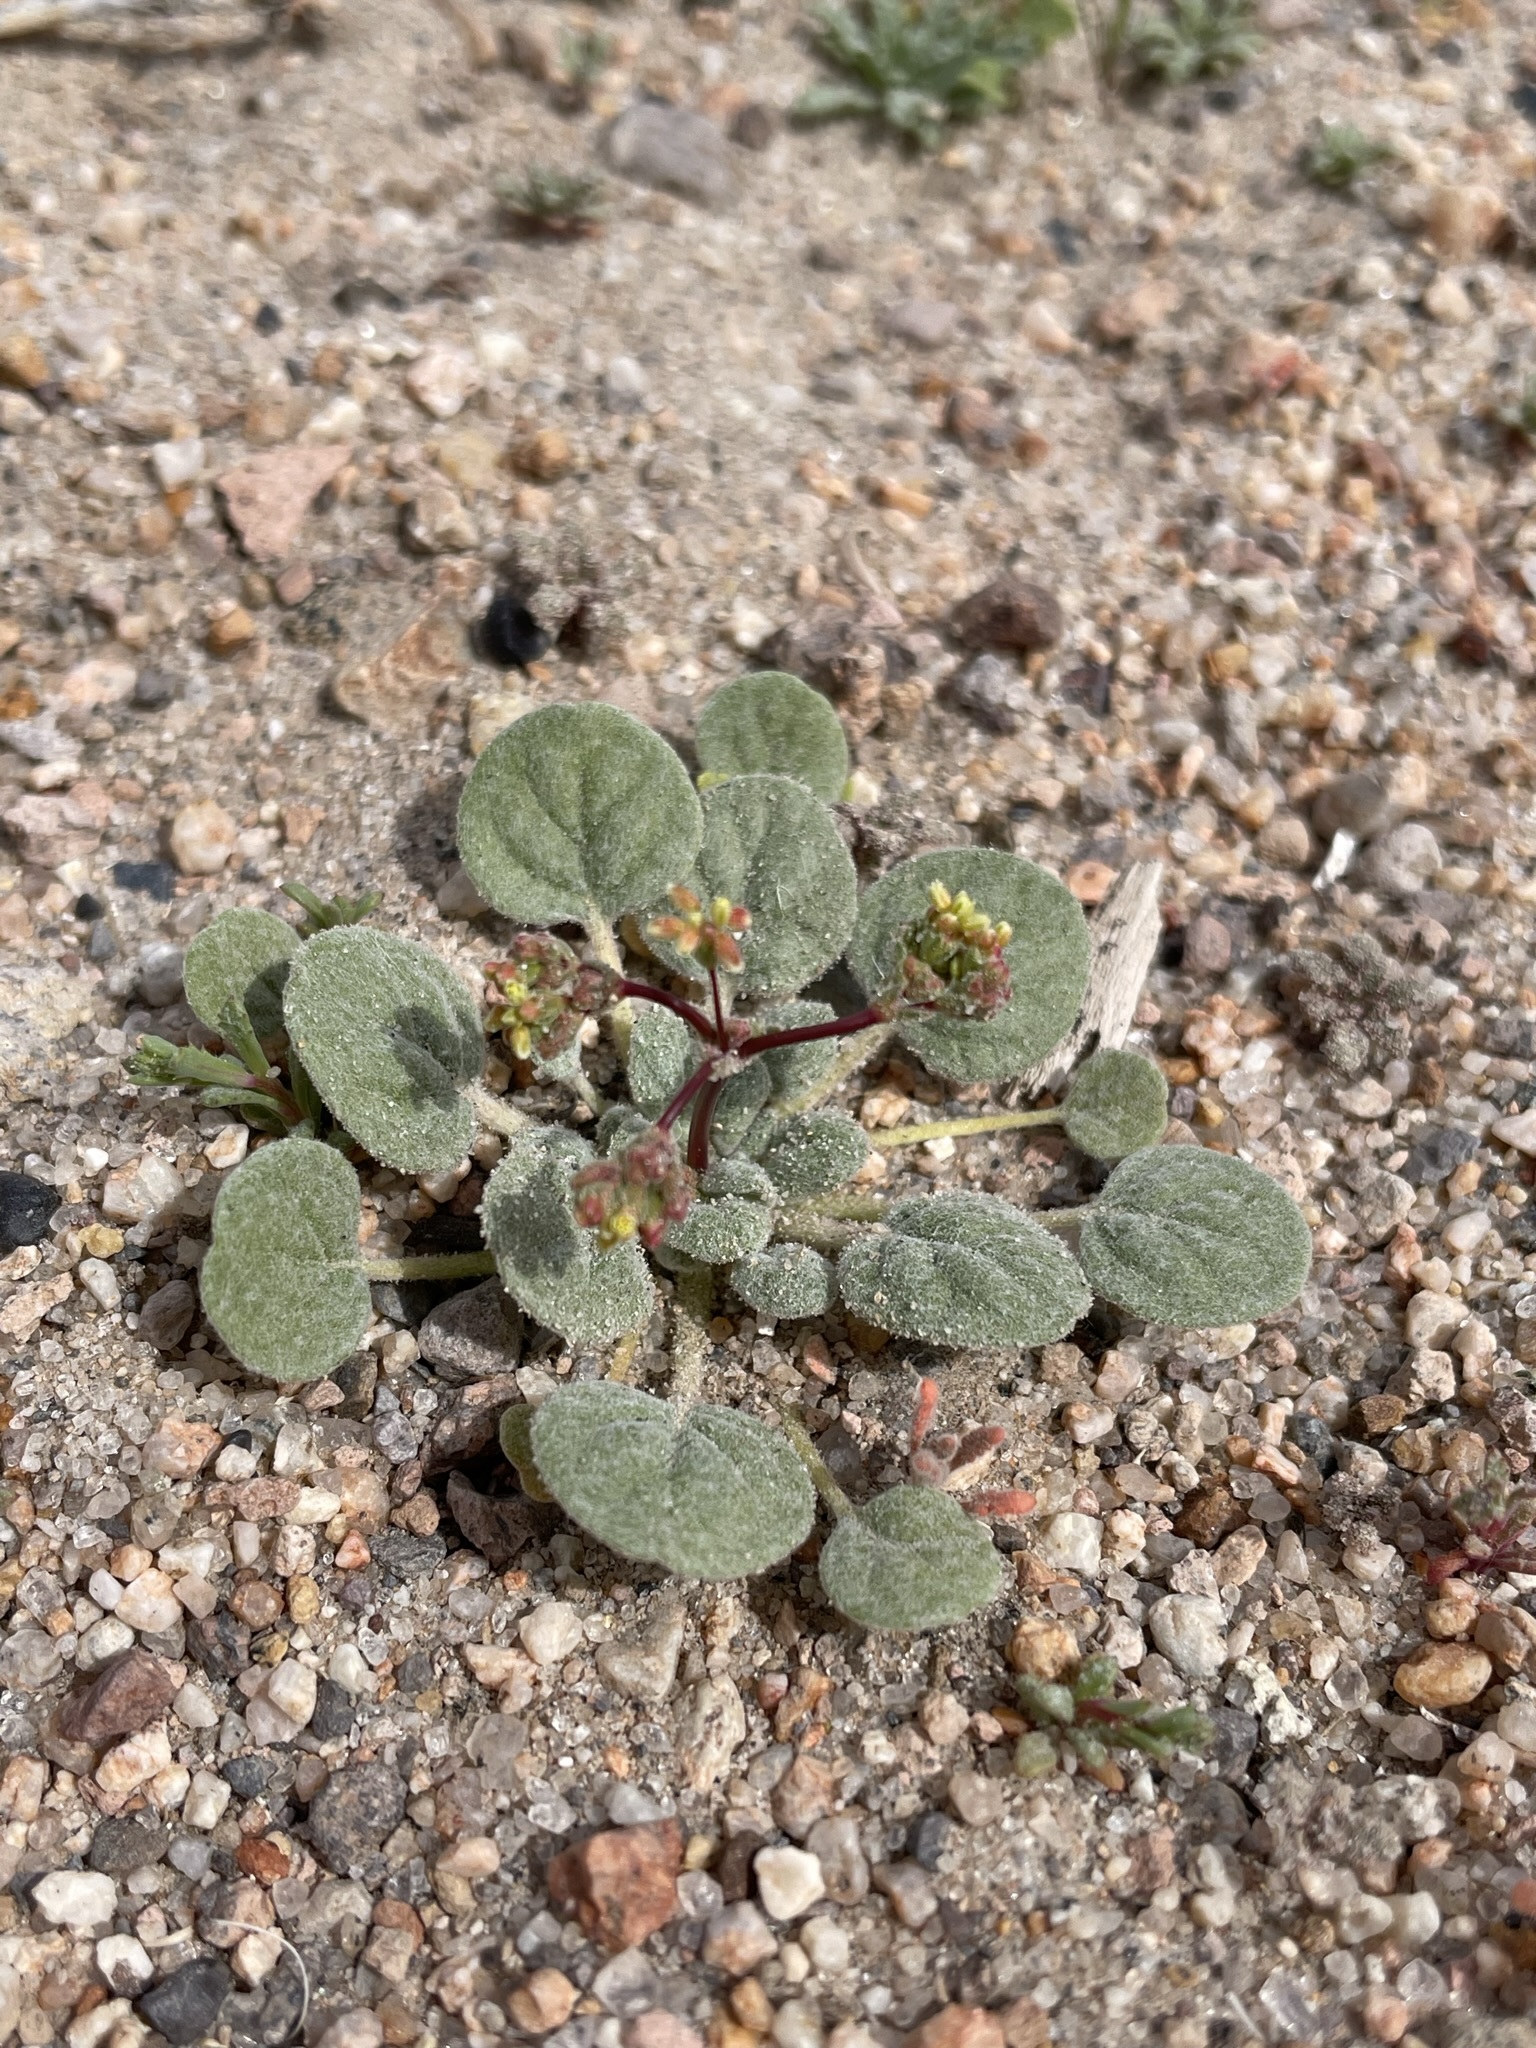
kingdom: Plantae
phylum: Tracheophyta
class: Magnoliopsida
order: Caryophyllales
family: Polygonaceae
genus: Eriogonum
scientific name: Eriogonum pusillum
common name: Yellow turbans
